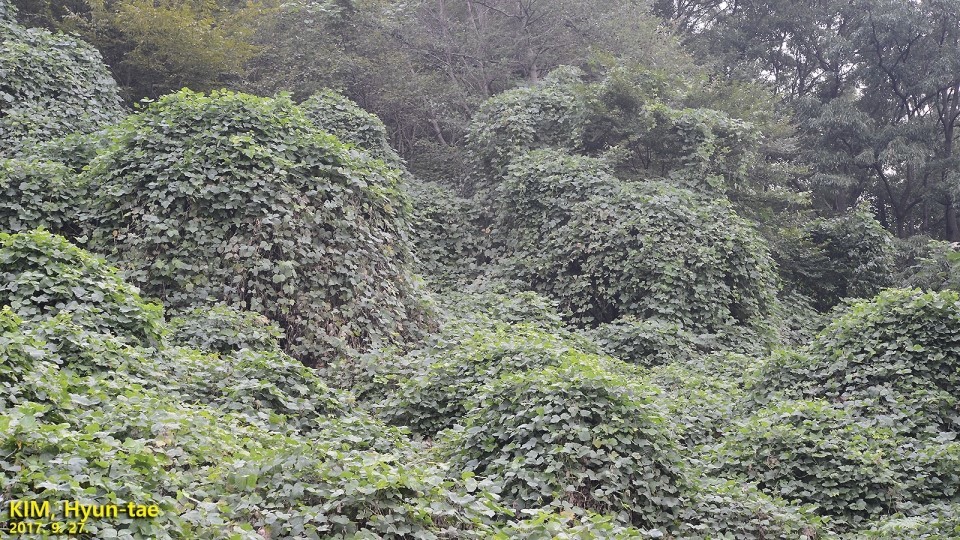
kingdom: Plantae
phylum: Tracheophyta
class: Magnoliopsida
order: Fabales
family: Fabaceae
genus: Pueraria
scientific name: Pueraria montana
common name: Kudzu
